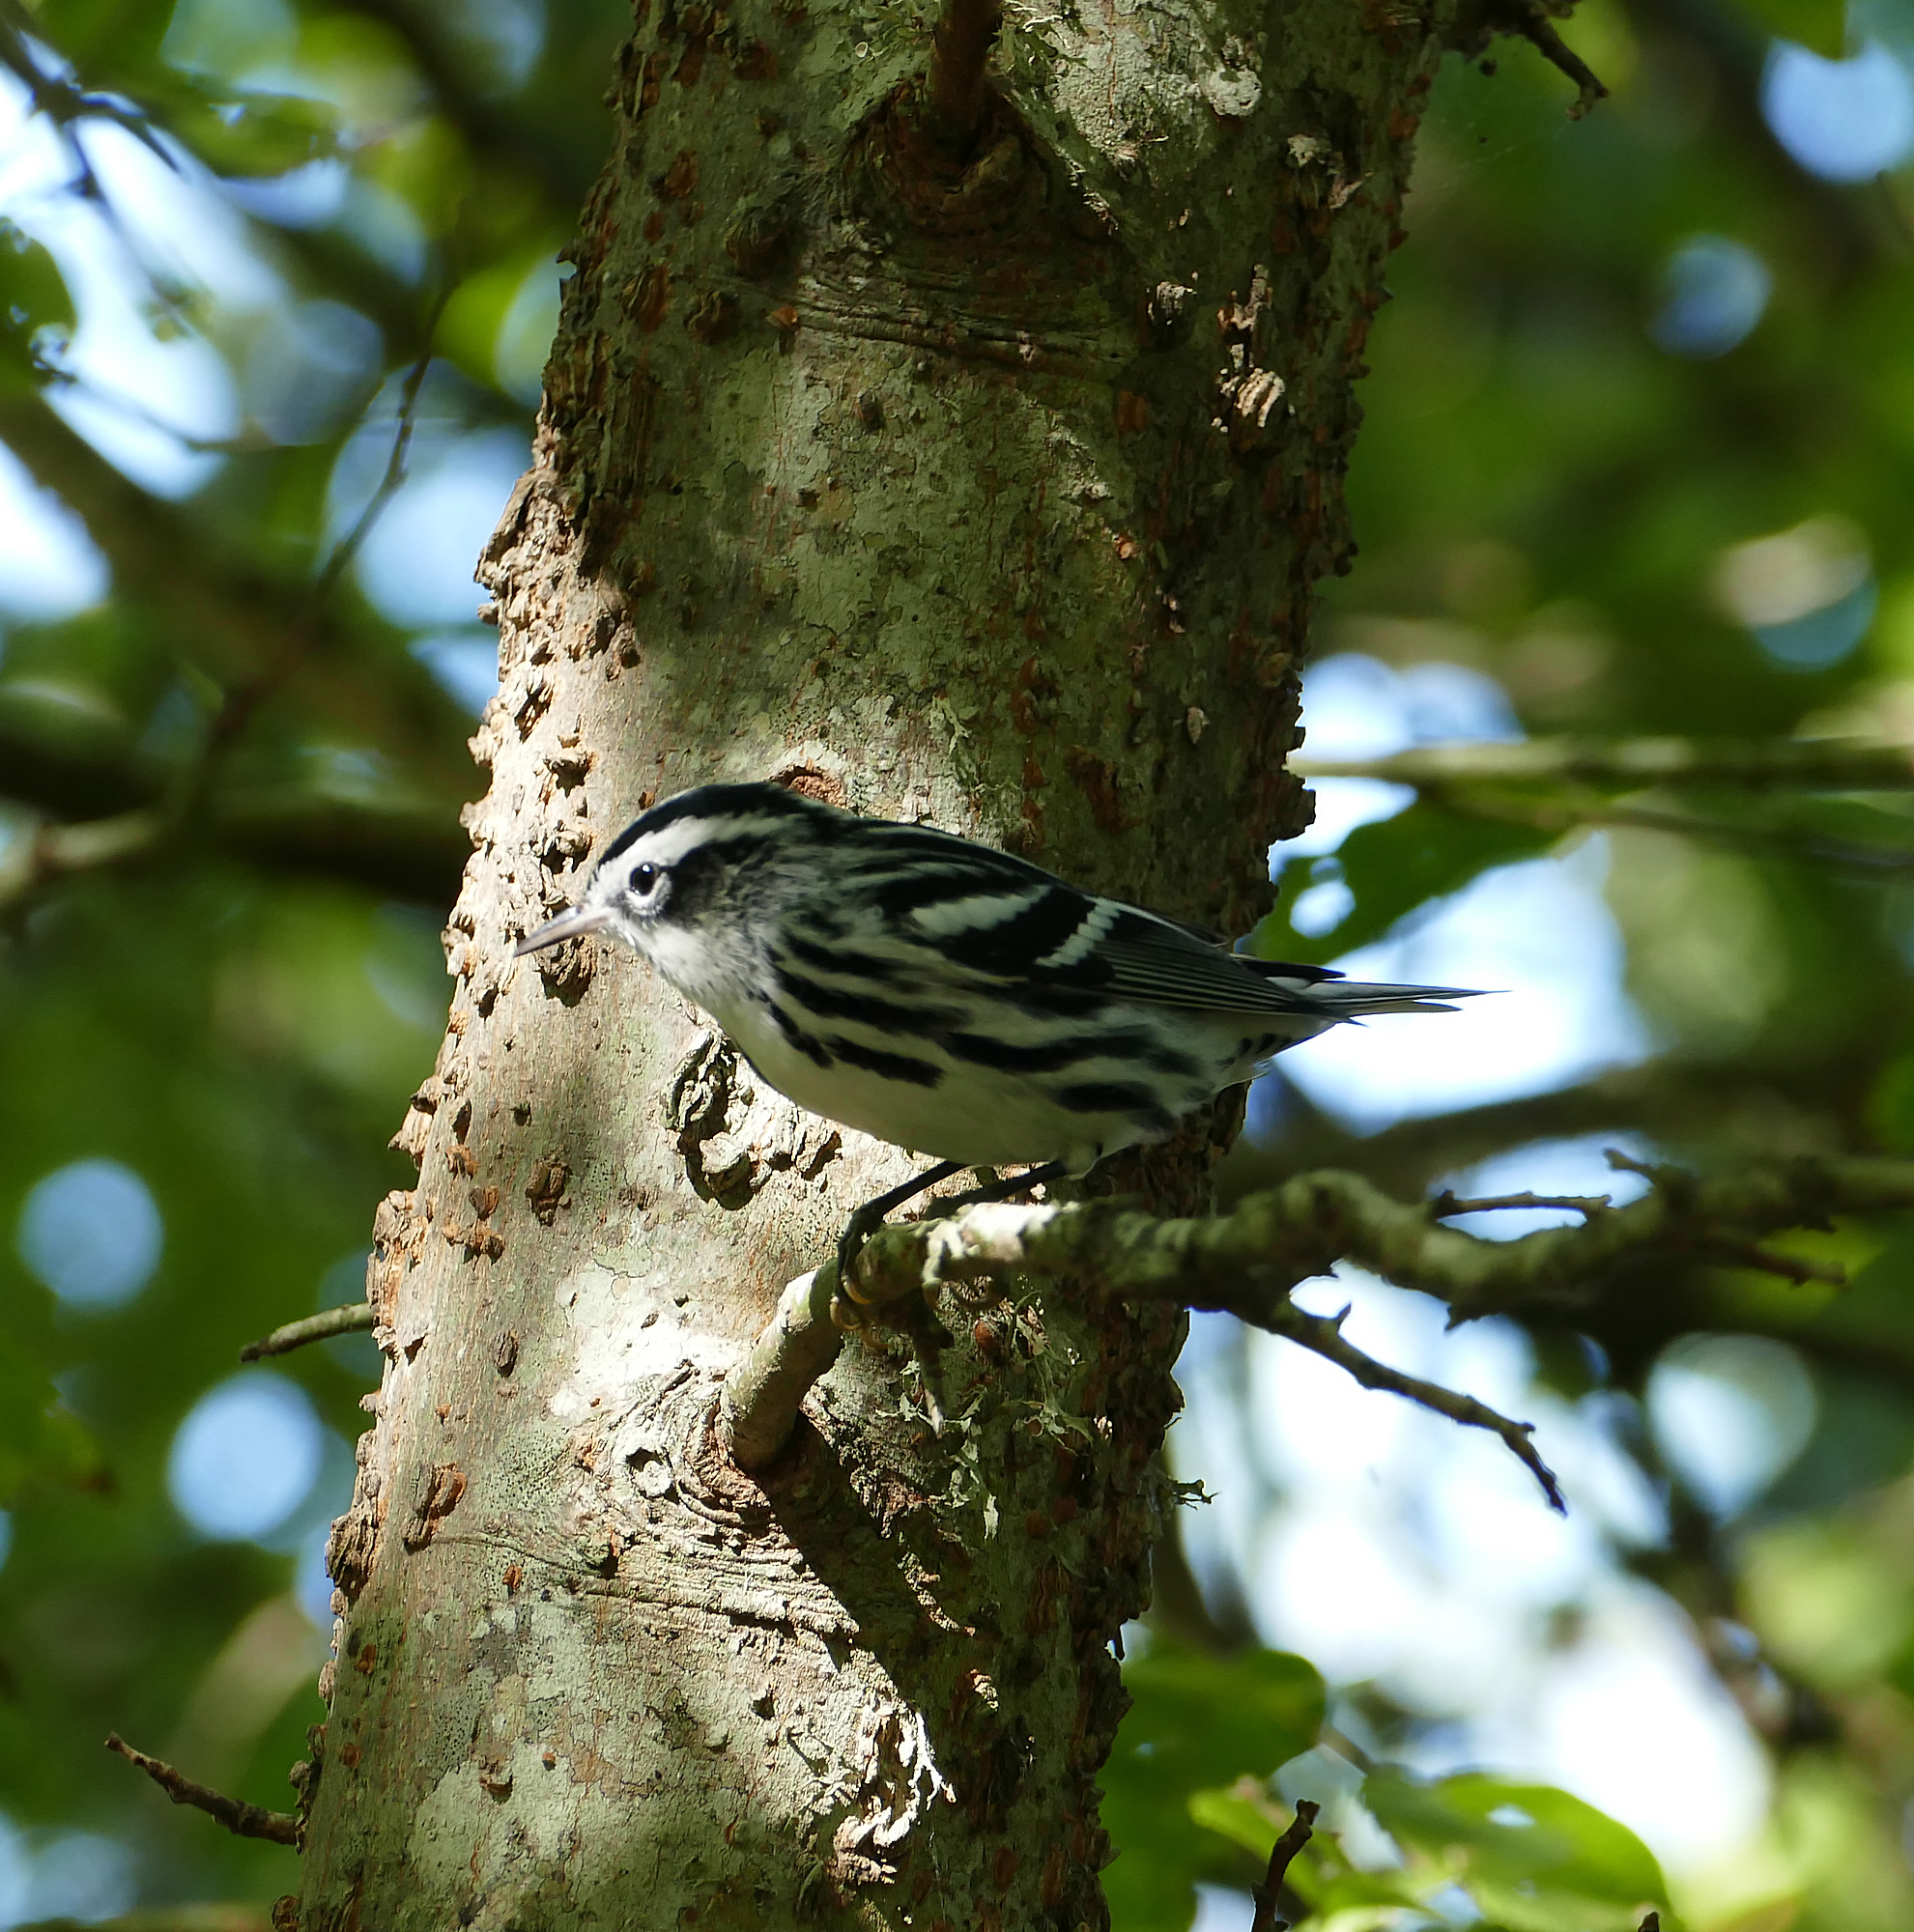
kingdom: Animalia
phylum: Chordata
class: Aves
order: Passeriformes
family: Parulidae
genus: Mniotilta
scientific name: Mniotilta varia
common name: Black-and-white warbler
